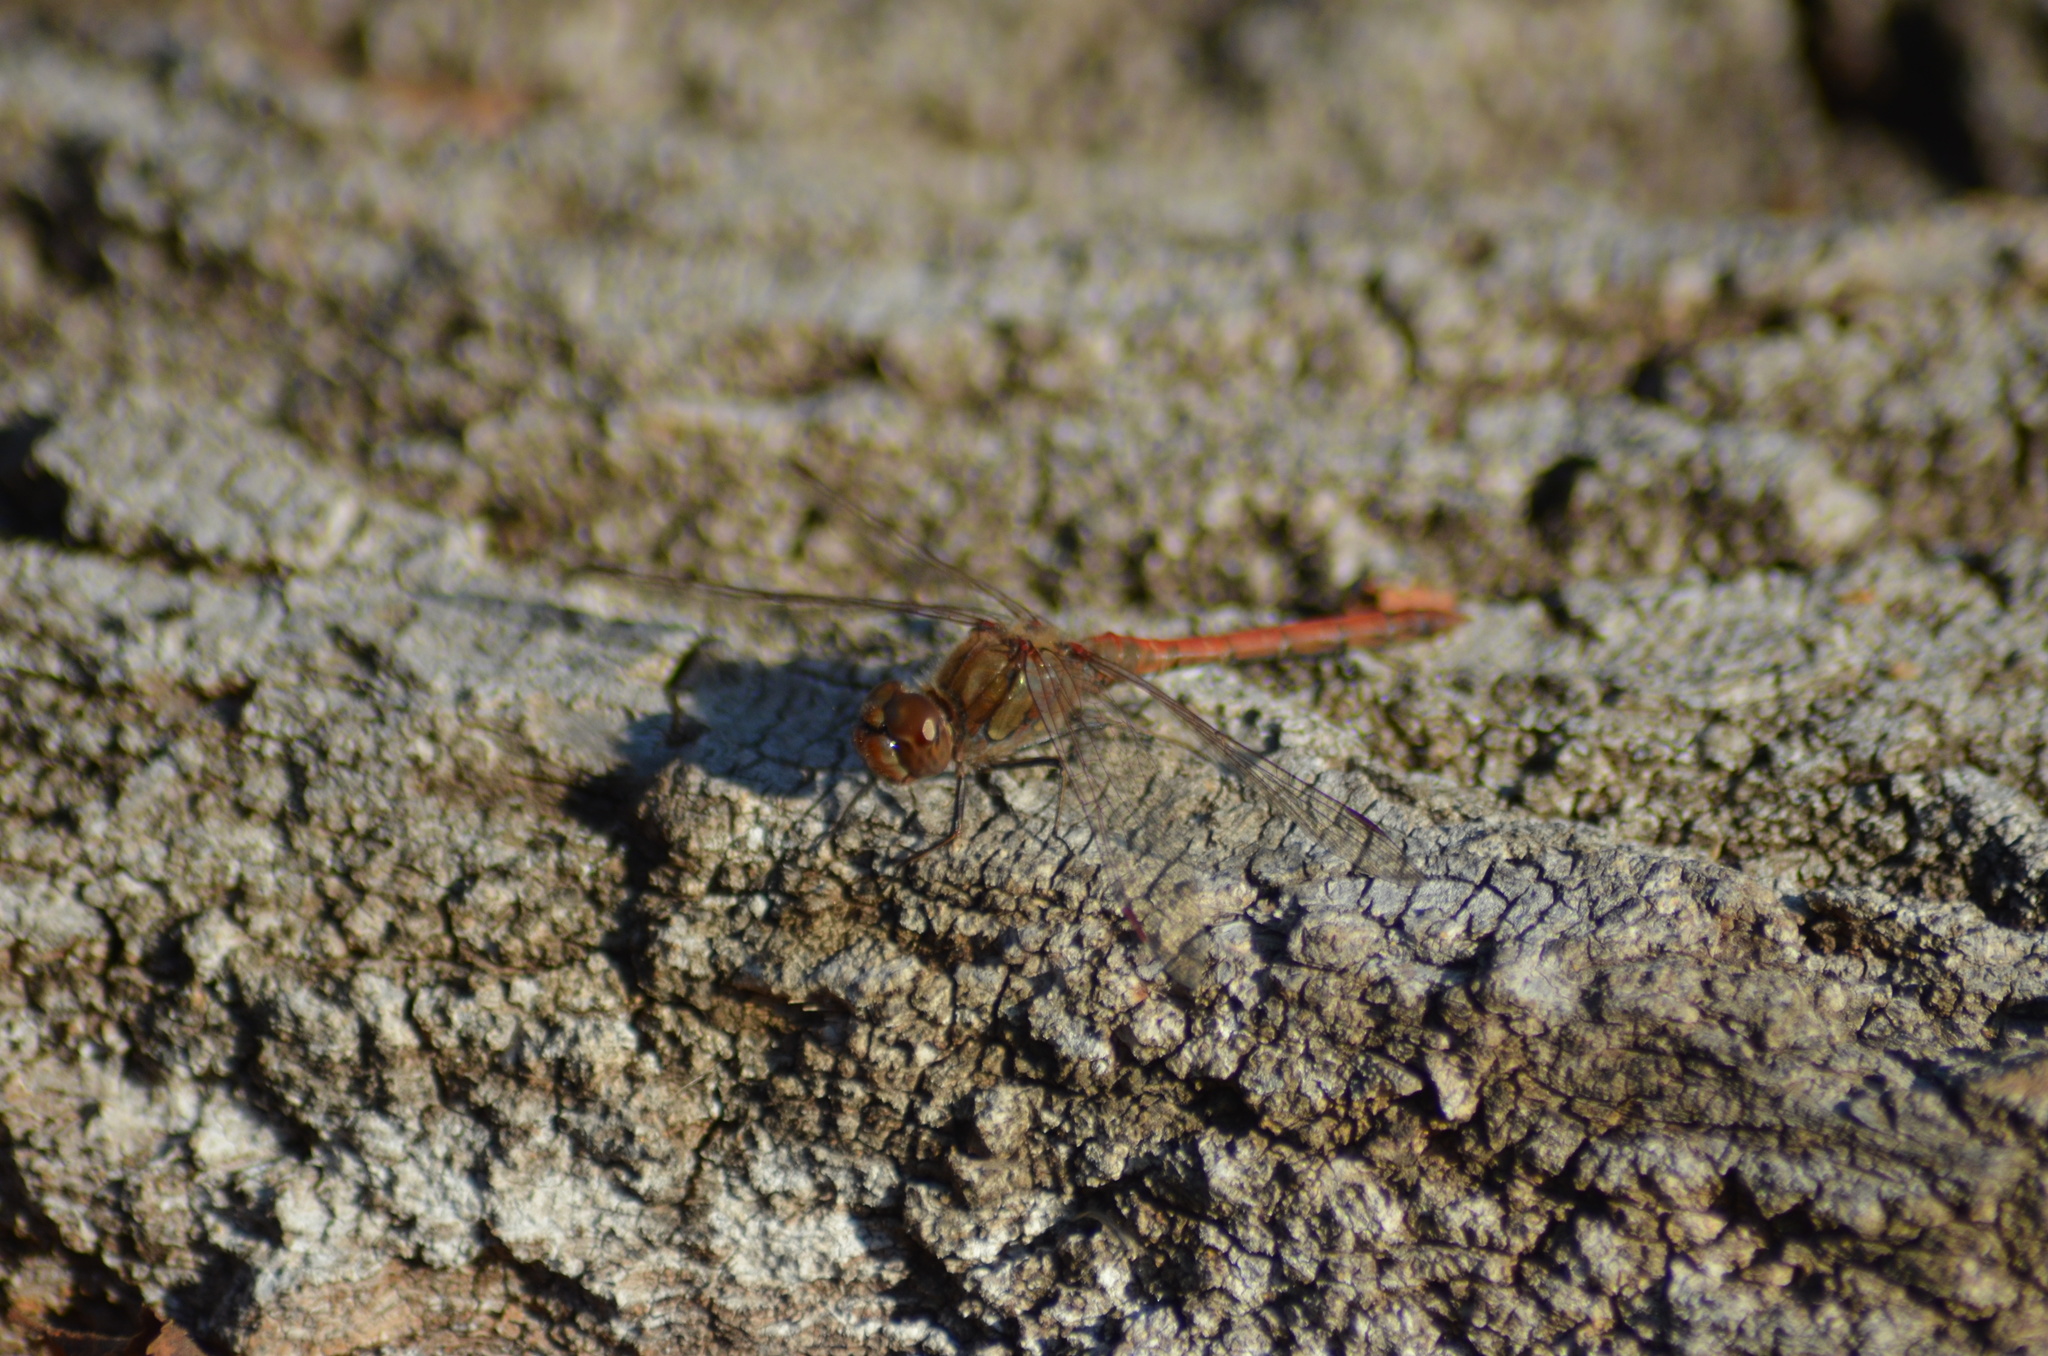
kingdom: Animalia
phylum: Arthropoda
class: Insecta
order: Odonata
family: Libellulidae
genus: Sympetrum
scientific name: Sympetrum striolatum
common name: Common darter
